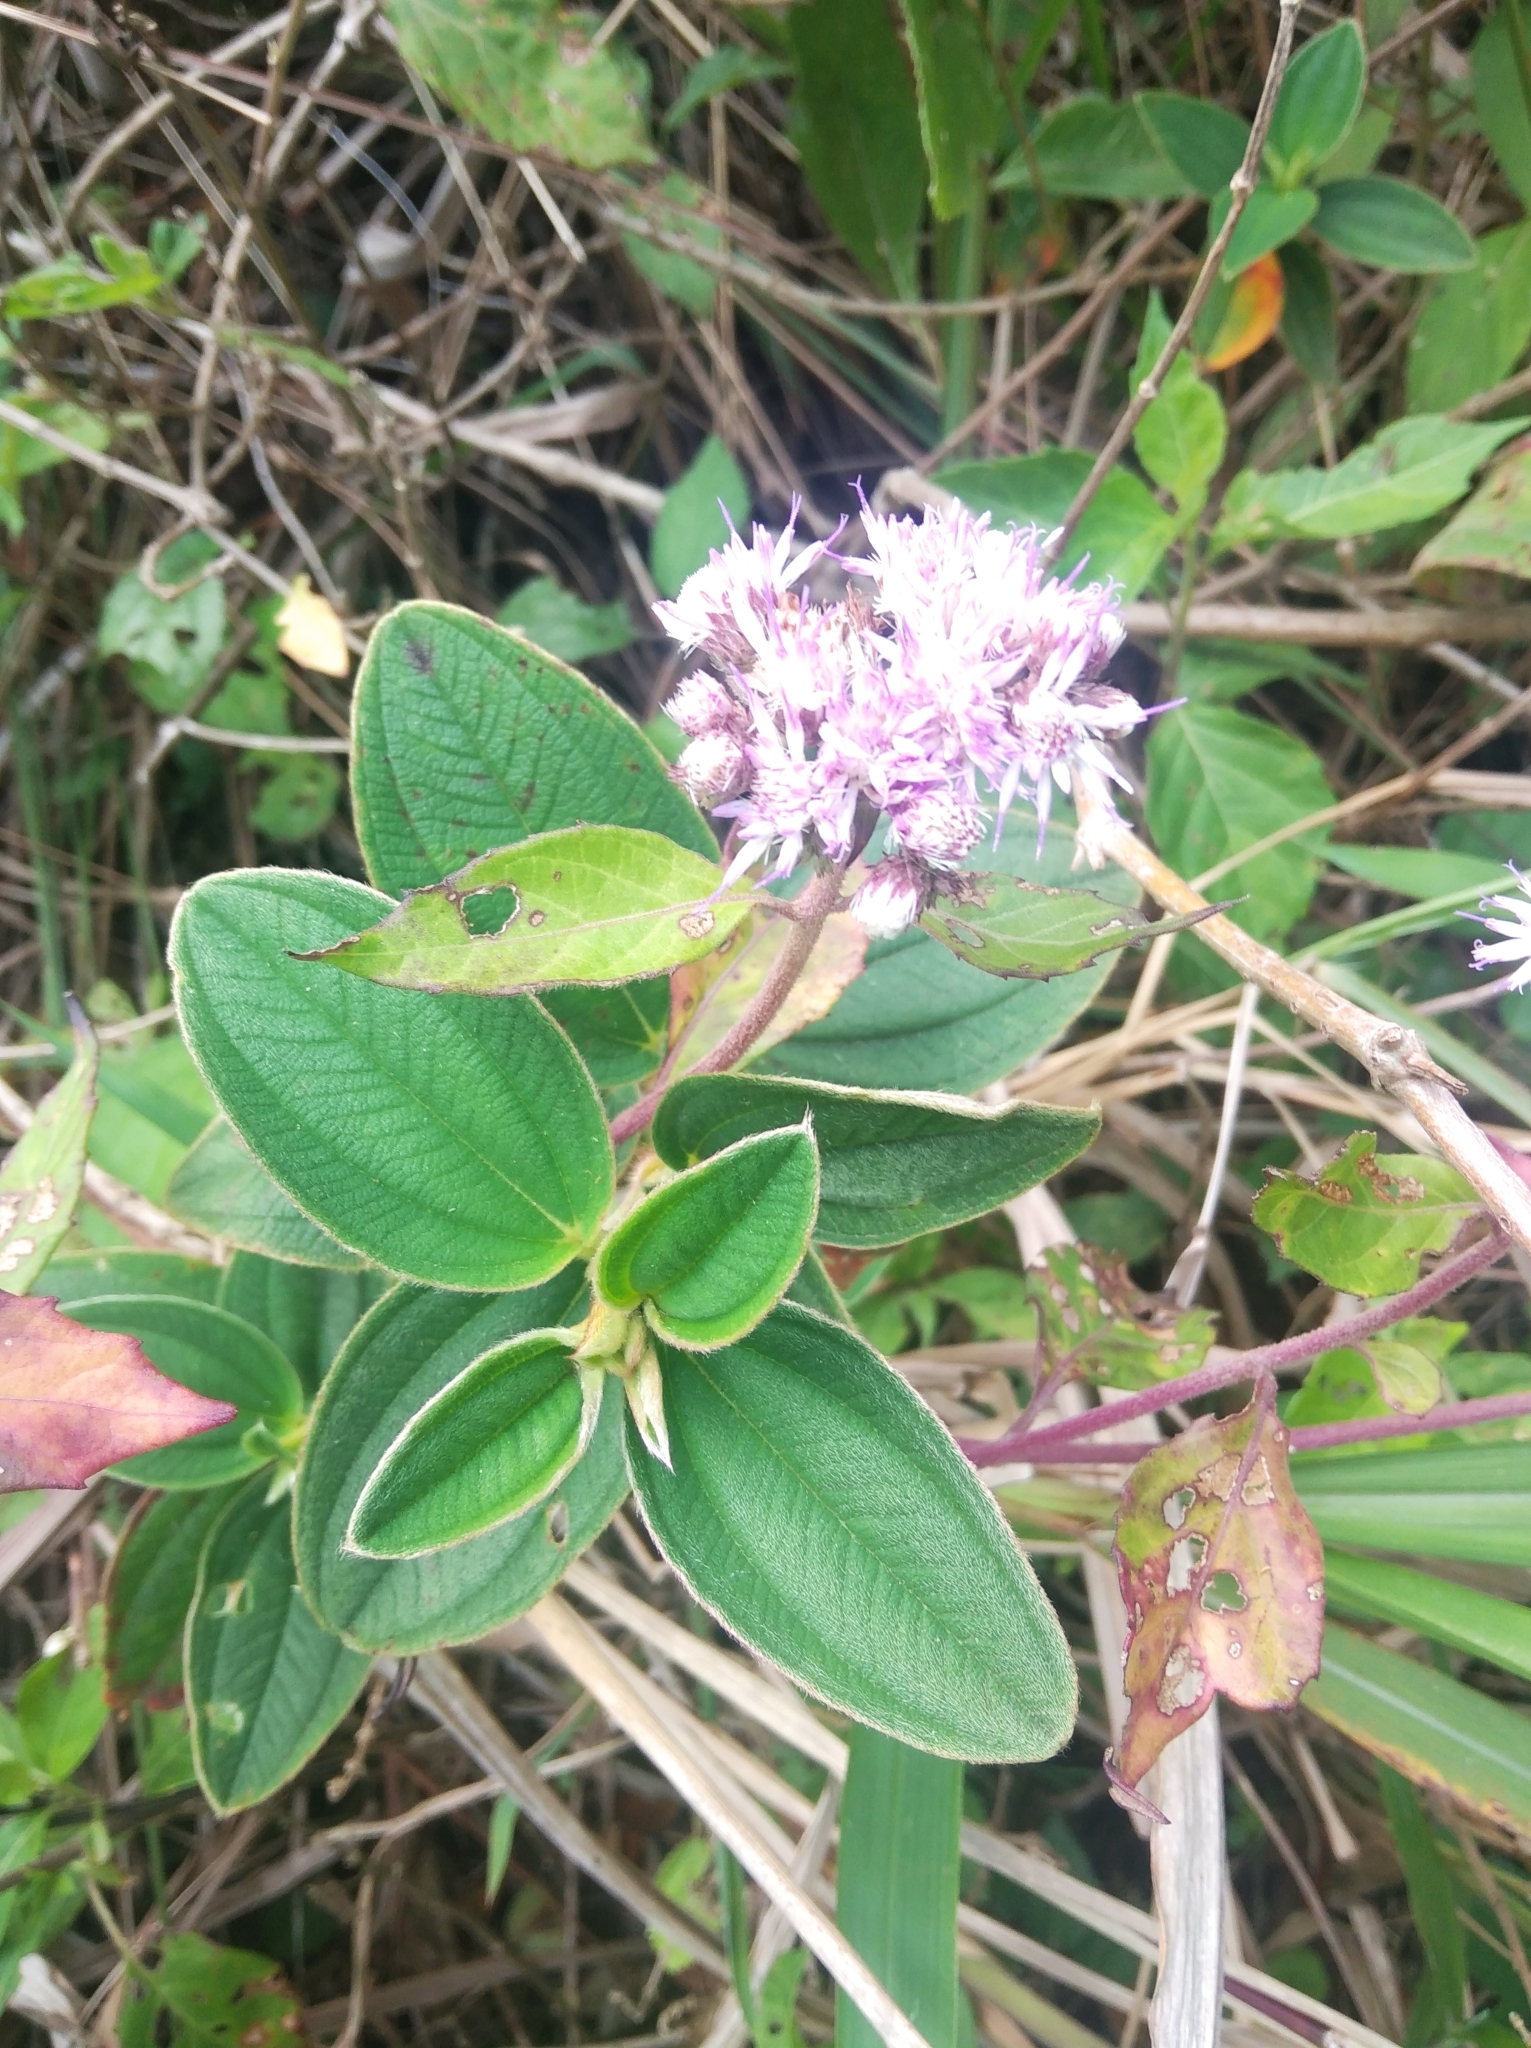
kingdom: Plantae
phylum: Tracheophyta
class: Magnoliopsida
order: Asterales
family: Asteraceae
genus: Cyrtocymura
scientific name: Cyrtocymura scorpioides
